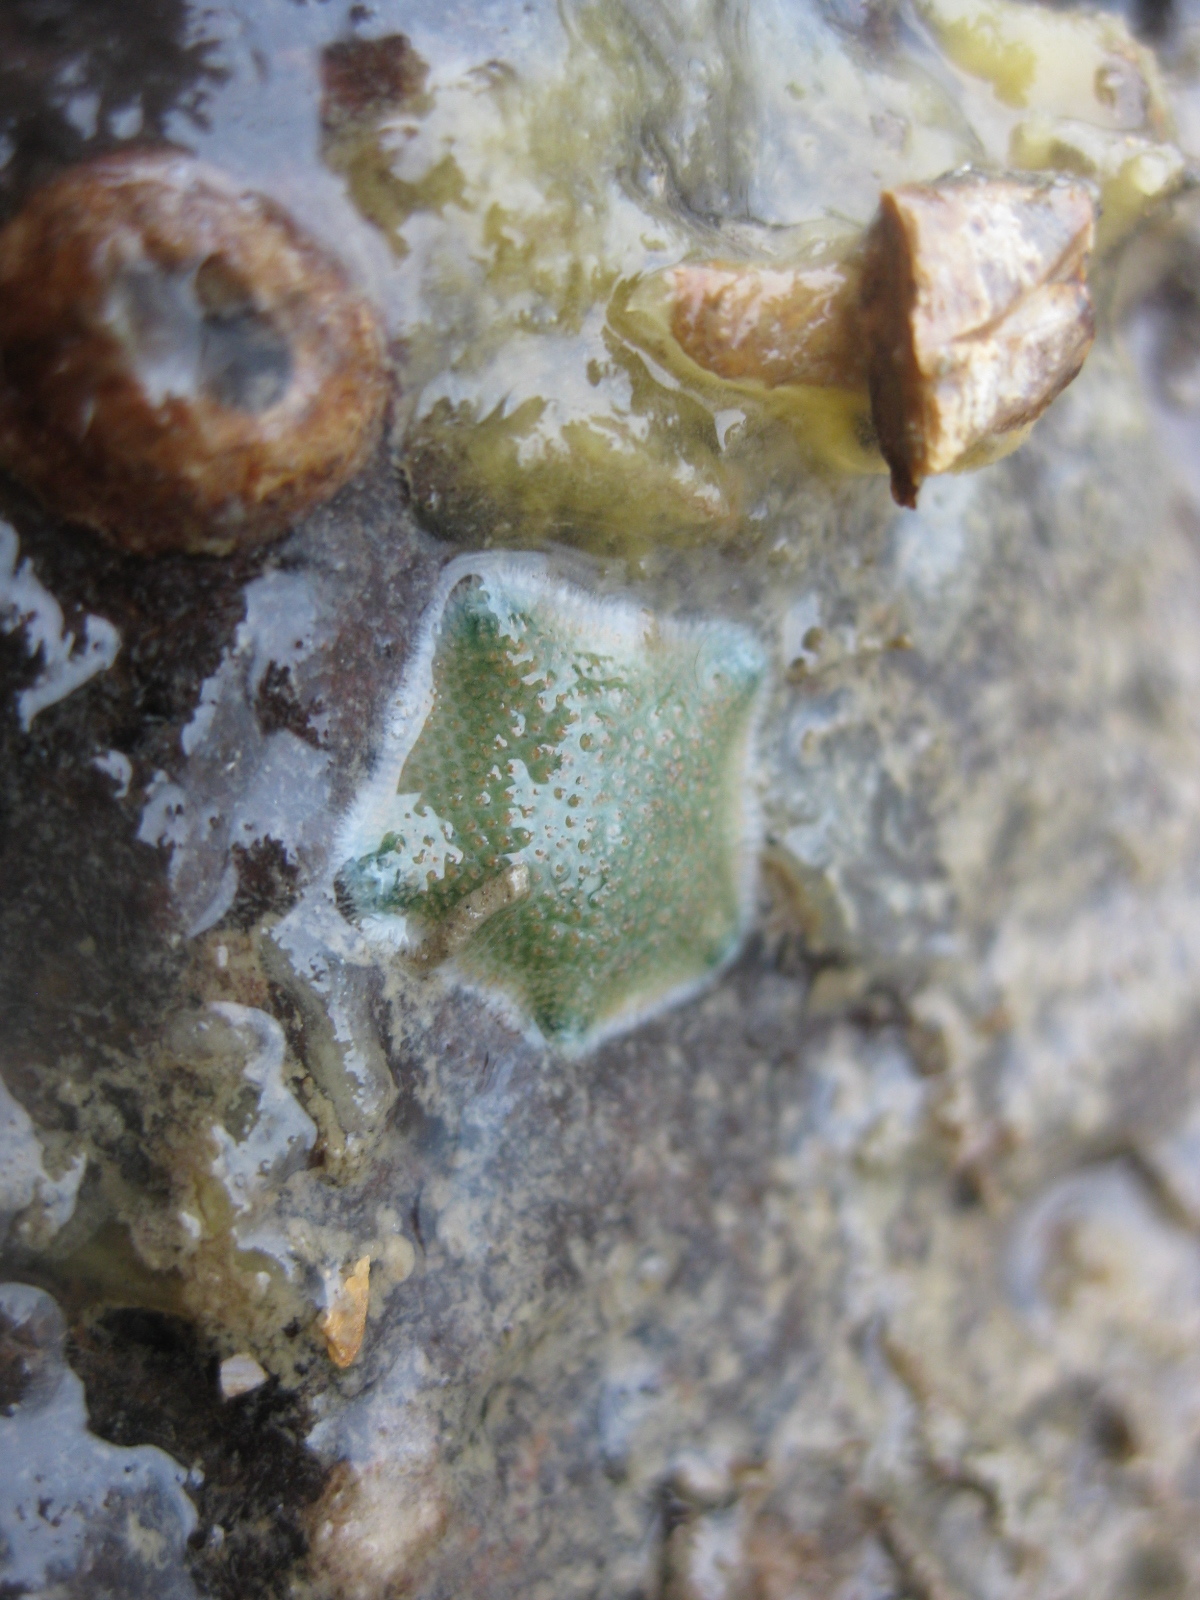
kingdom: Animalia
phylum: Echinodermata
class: Asteroidea
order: Valvatida
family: Asterinidae
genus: Patiriella
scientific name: Patiriella regularis
